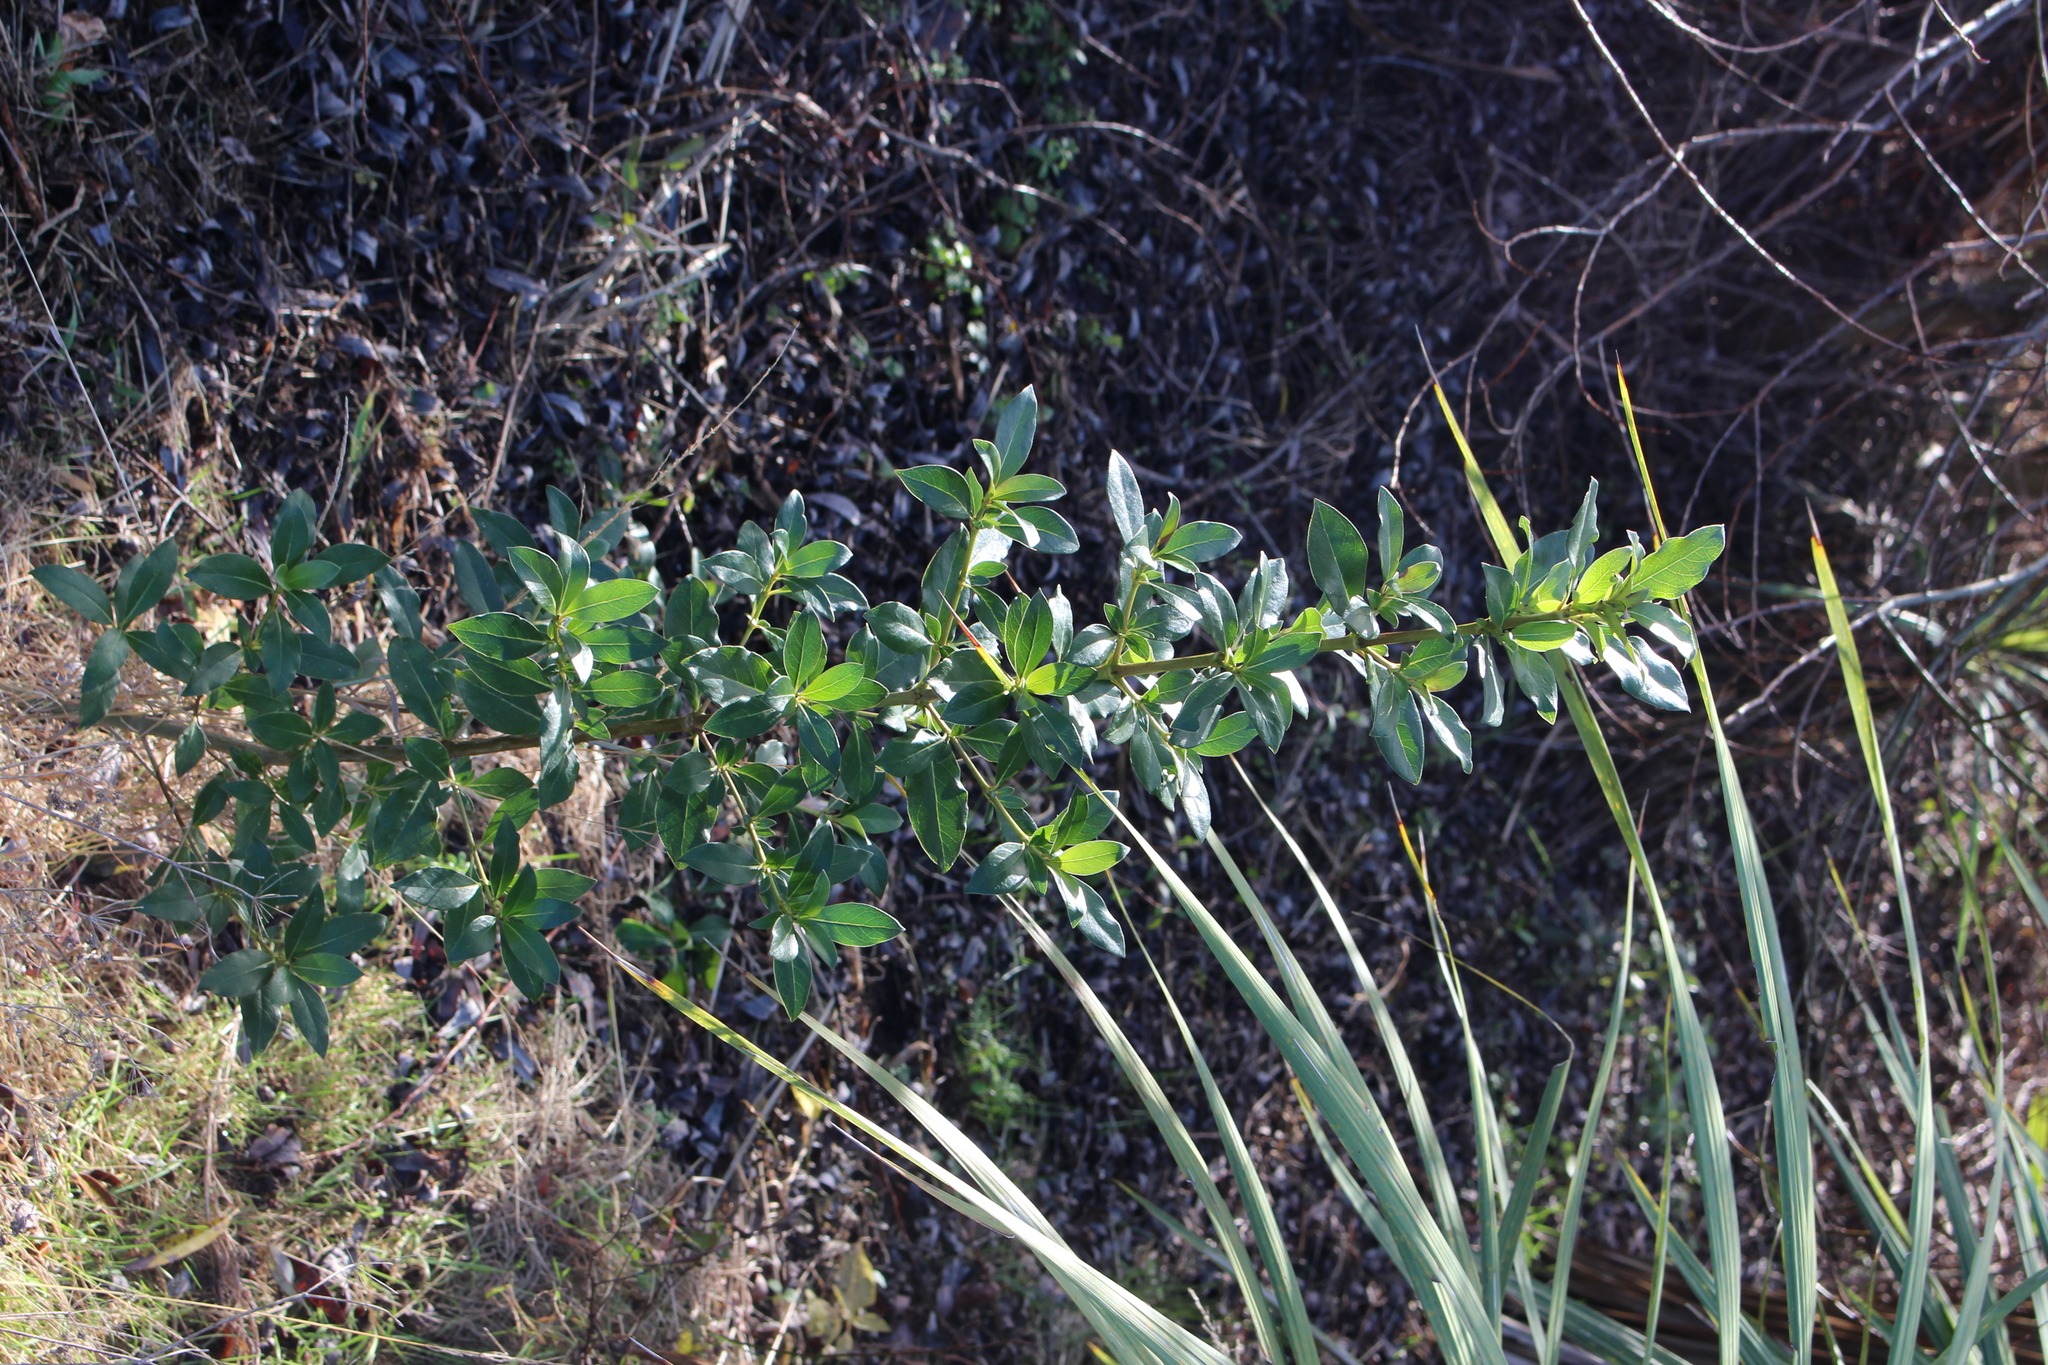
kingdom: Plantae
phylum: Tracheophyta
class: Magnoliopsida
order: Gentianales
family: Rubiaceae
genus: Coprosma
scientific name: Coprosma robusta
